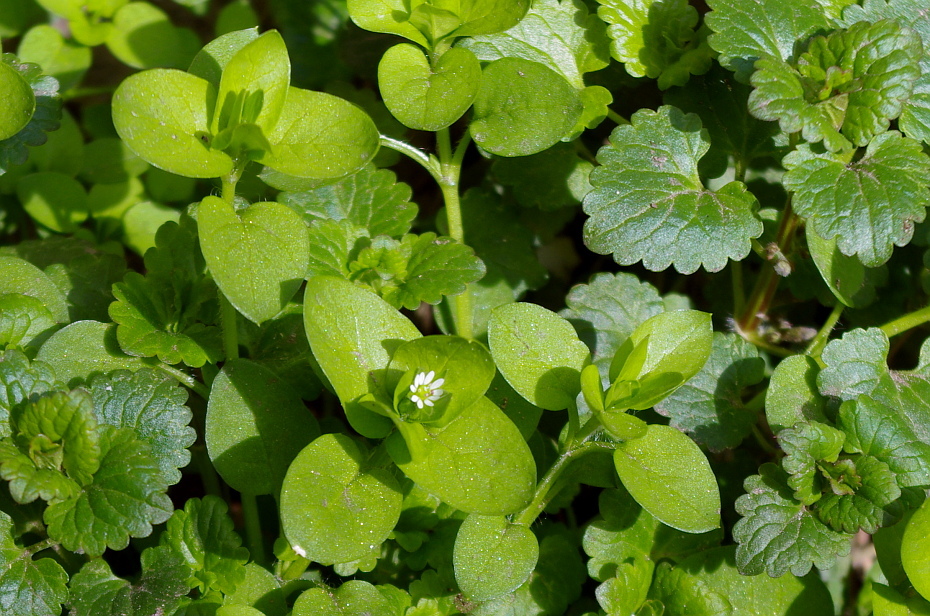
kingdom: Plantae
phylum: Tracheophyta
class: Magnoliopsida
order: Caryophyllales
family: Caryophyllaceae
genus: Stellaria
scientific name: Stellaria media
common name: Common chickweed
